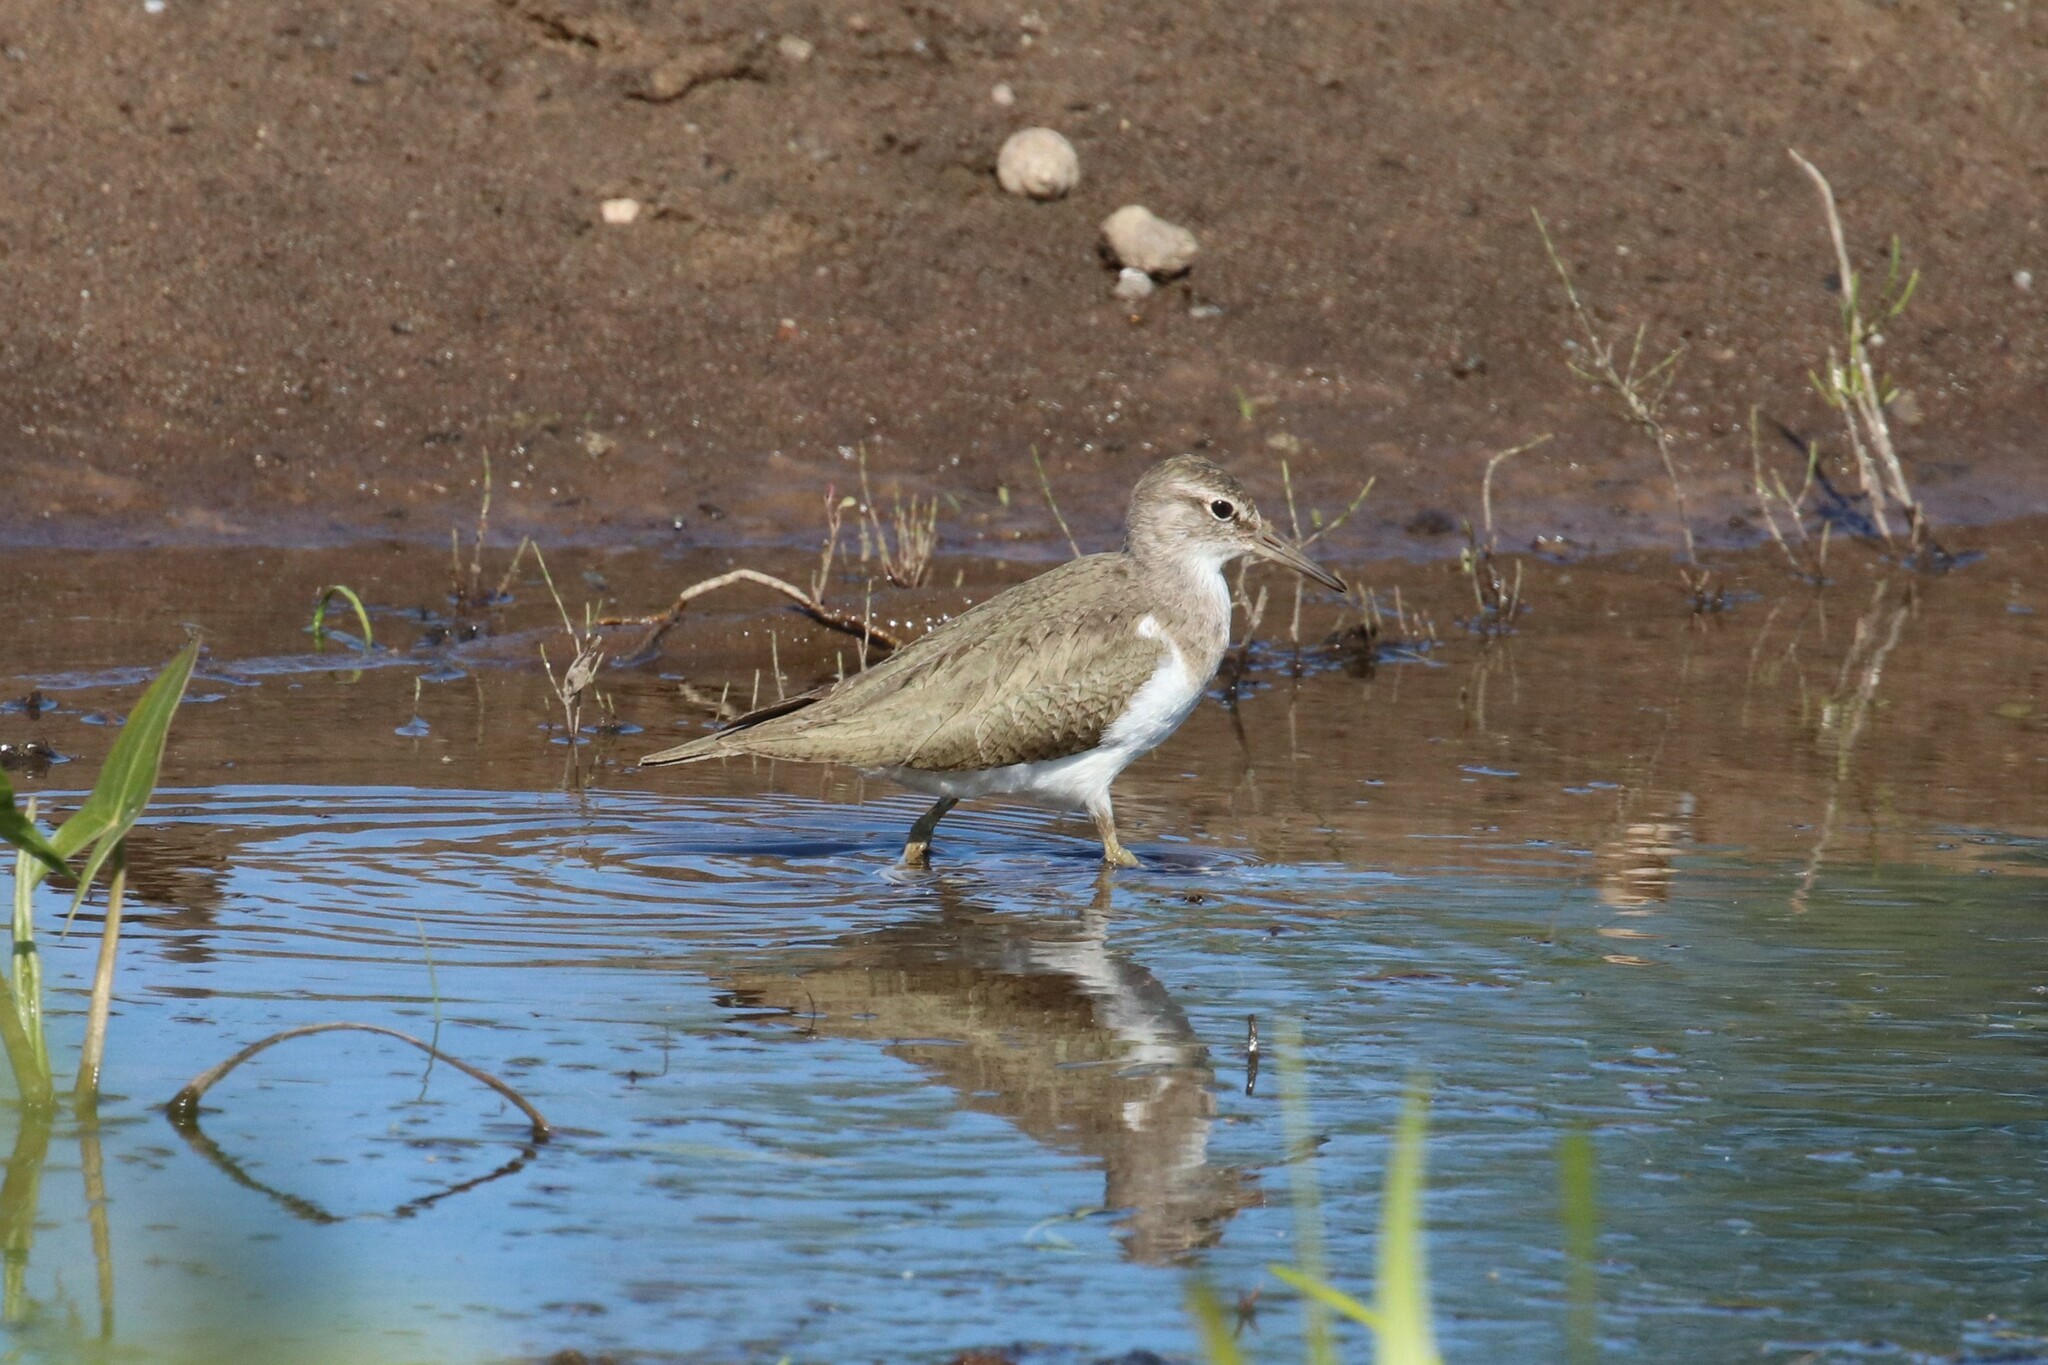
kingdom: Animalia
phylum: Chordata
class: Aves
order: Charadriiformes
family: Scolopacidae
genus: Actitis
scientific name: Actitis hypoleucos
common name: Common sandpiper
